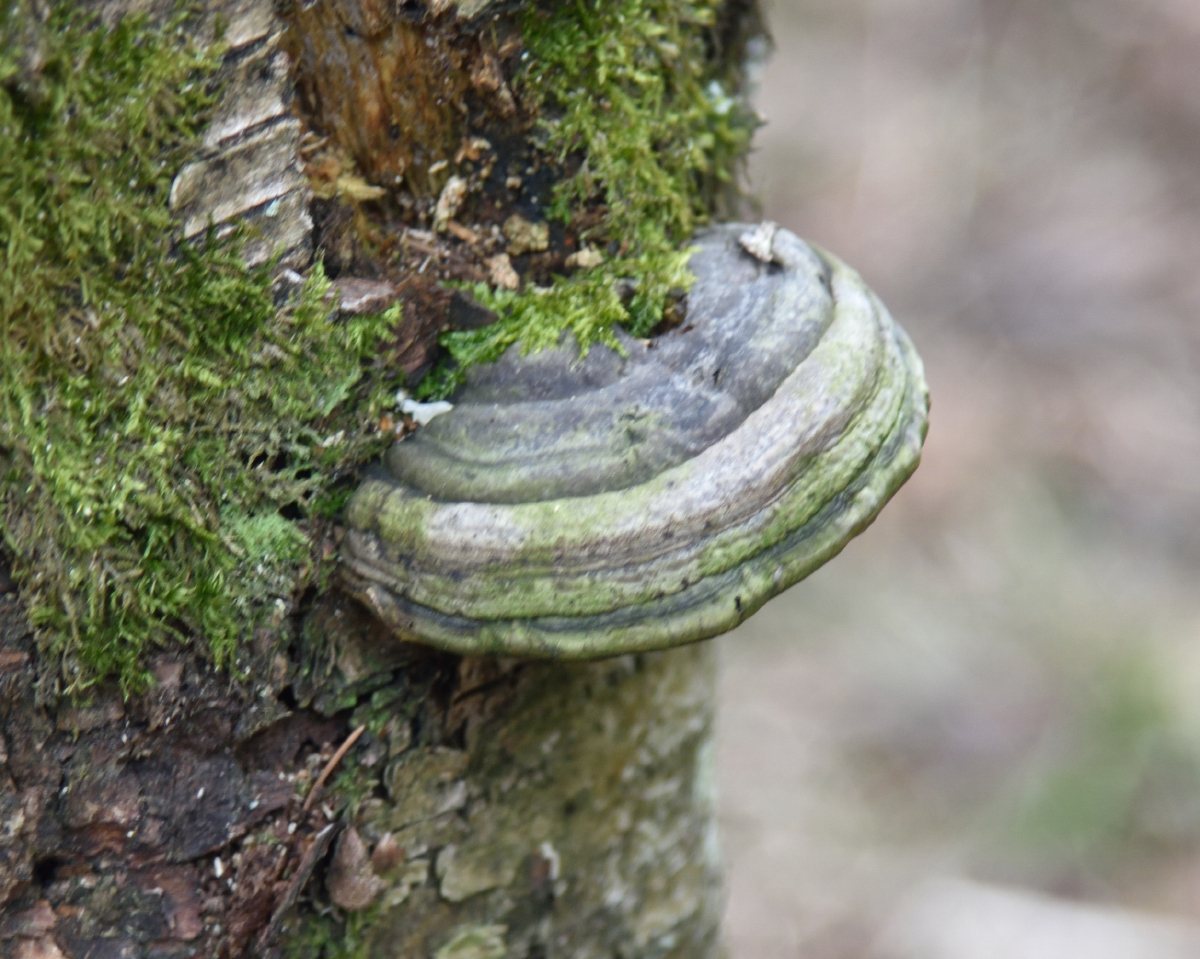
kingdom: Fungi
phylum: Basidiomycota
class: Agaricomycetes
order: Polyporales
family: Polyporaceae
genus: Fomes
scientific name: Fomes fomentarius
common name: Hoof fungus
